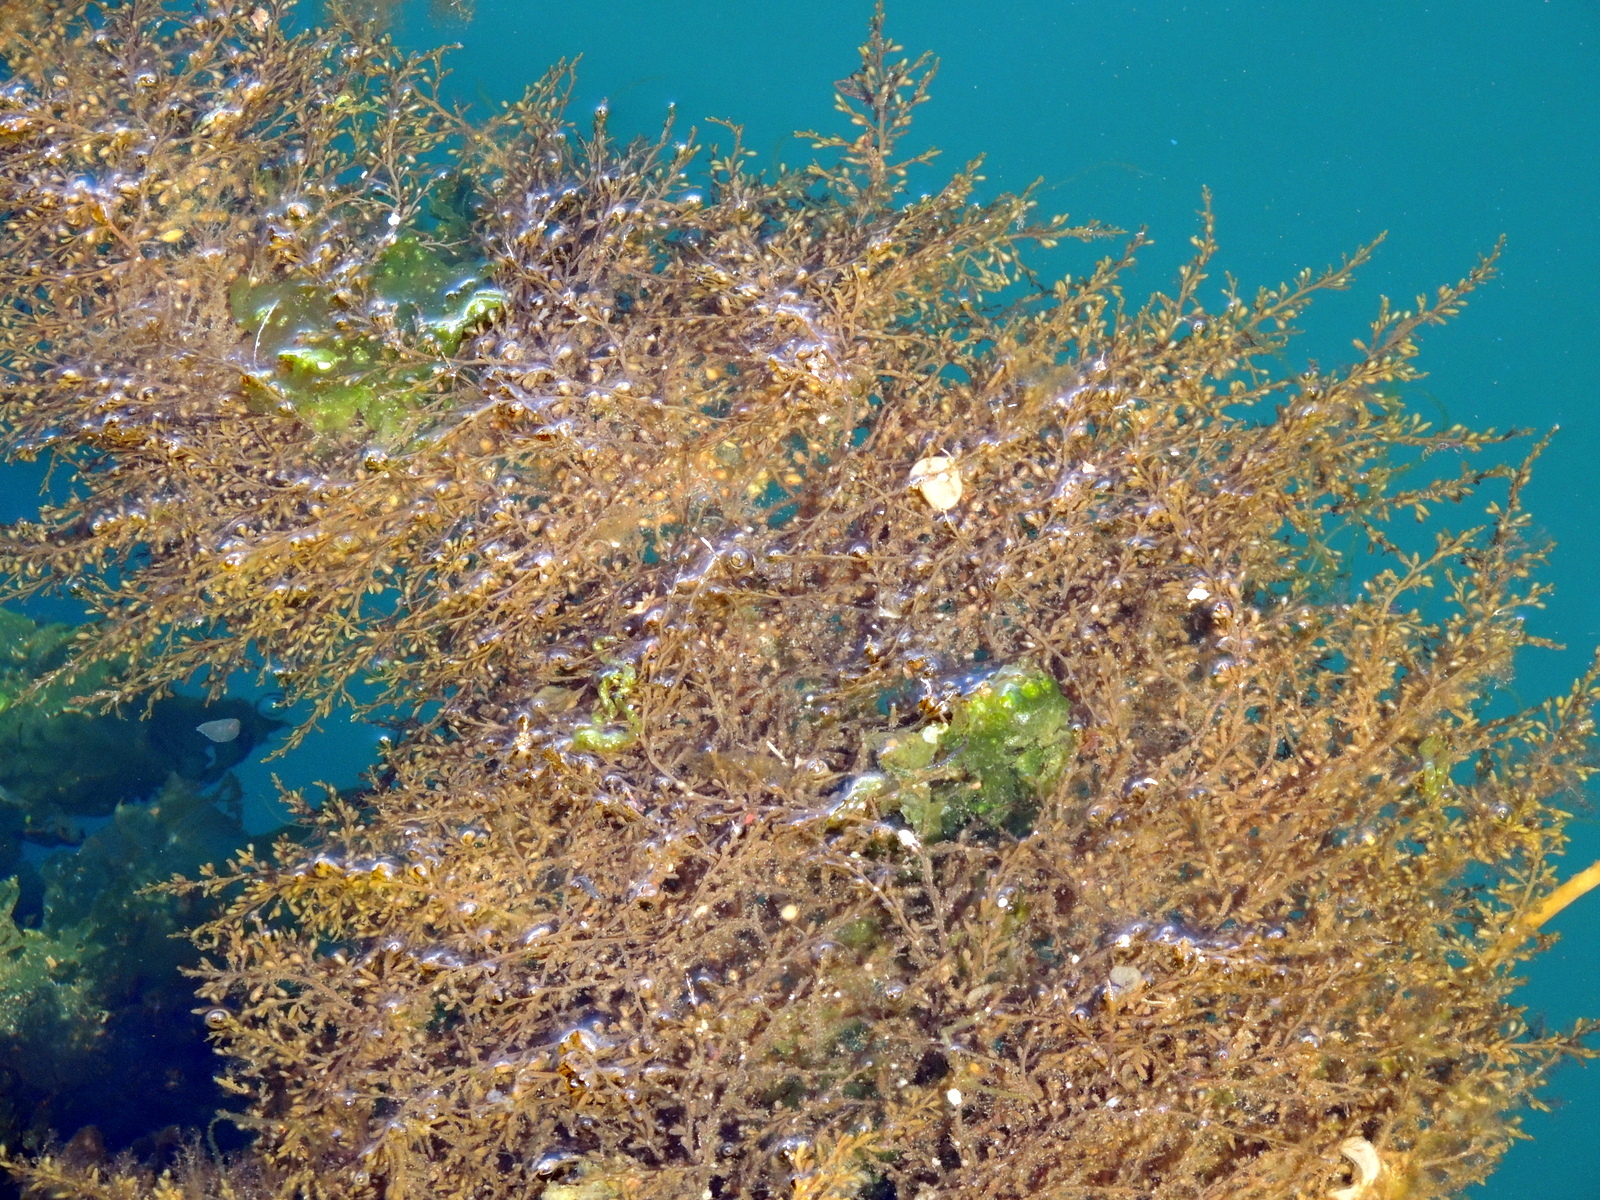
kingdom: Chromista
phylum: Ochrophyta
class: Phaeophyceae
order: Fucales
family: Sargassaceae
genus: Sargassum
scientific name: Sargassum muticum
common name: Japweed
